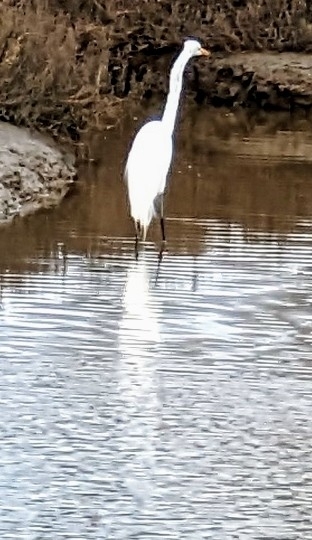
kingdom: Animalia
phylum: Chordata
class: Aves
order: Pelecaniformes
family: Ardeidae
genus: Egretta
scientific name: Egretta thula
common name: Snowy egret
